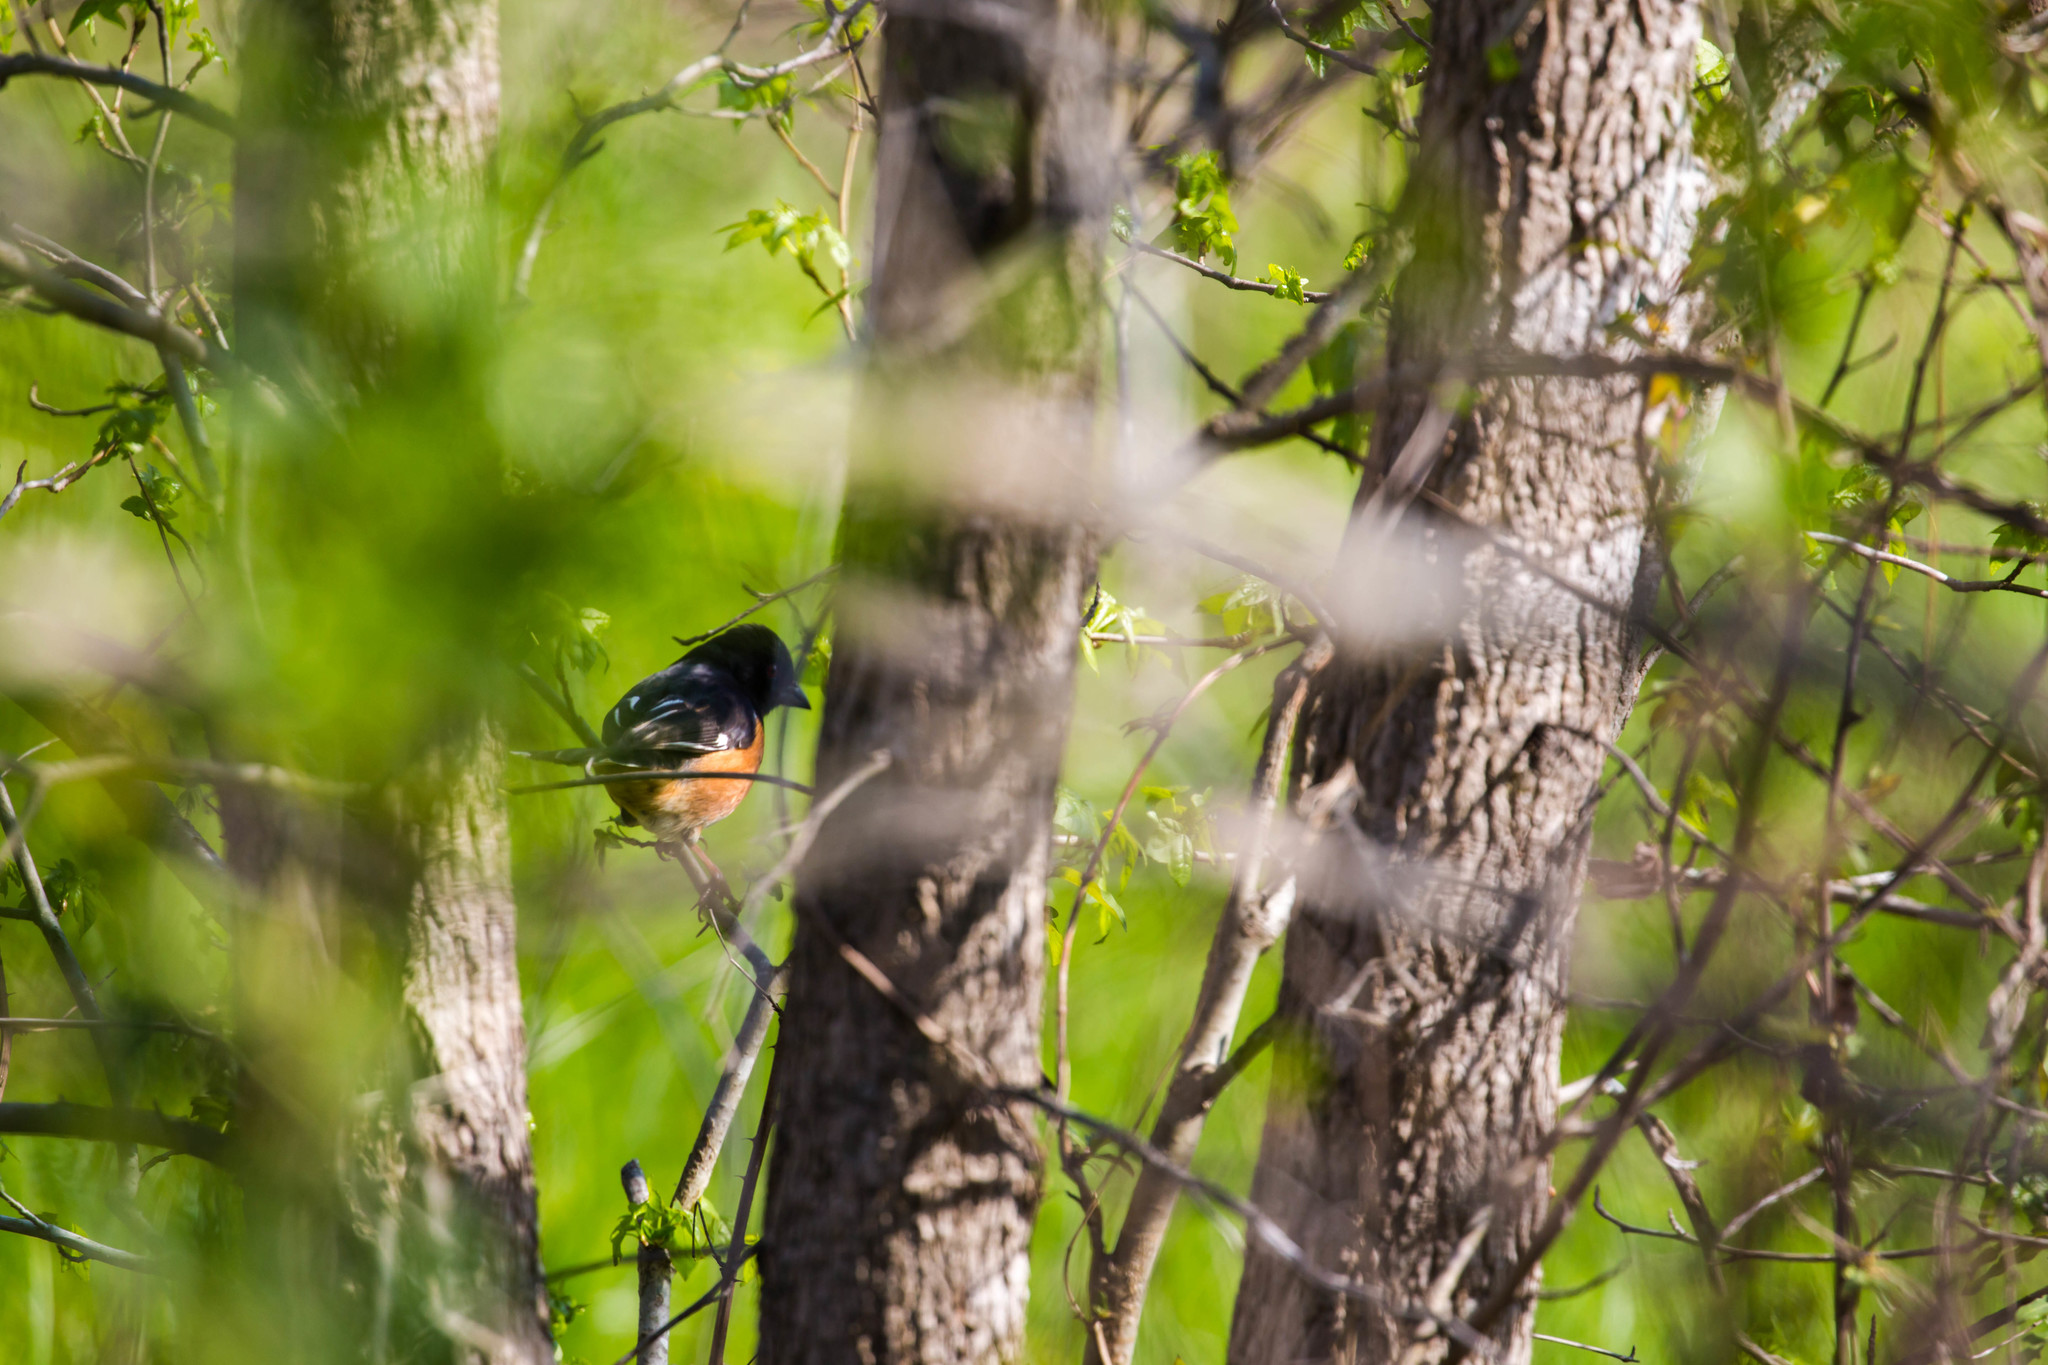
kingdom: Animalia
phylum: Chordata
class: Aves
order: Passeriformes
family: Passerellidae
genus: Pipilo
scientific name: Pipilo erythrophthalmus
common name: Eastern towhee
